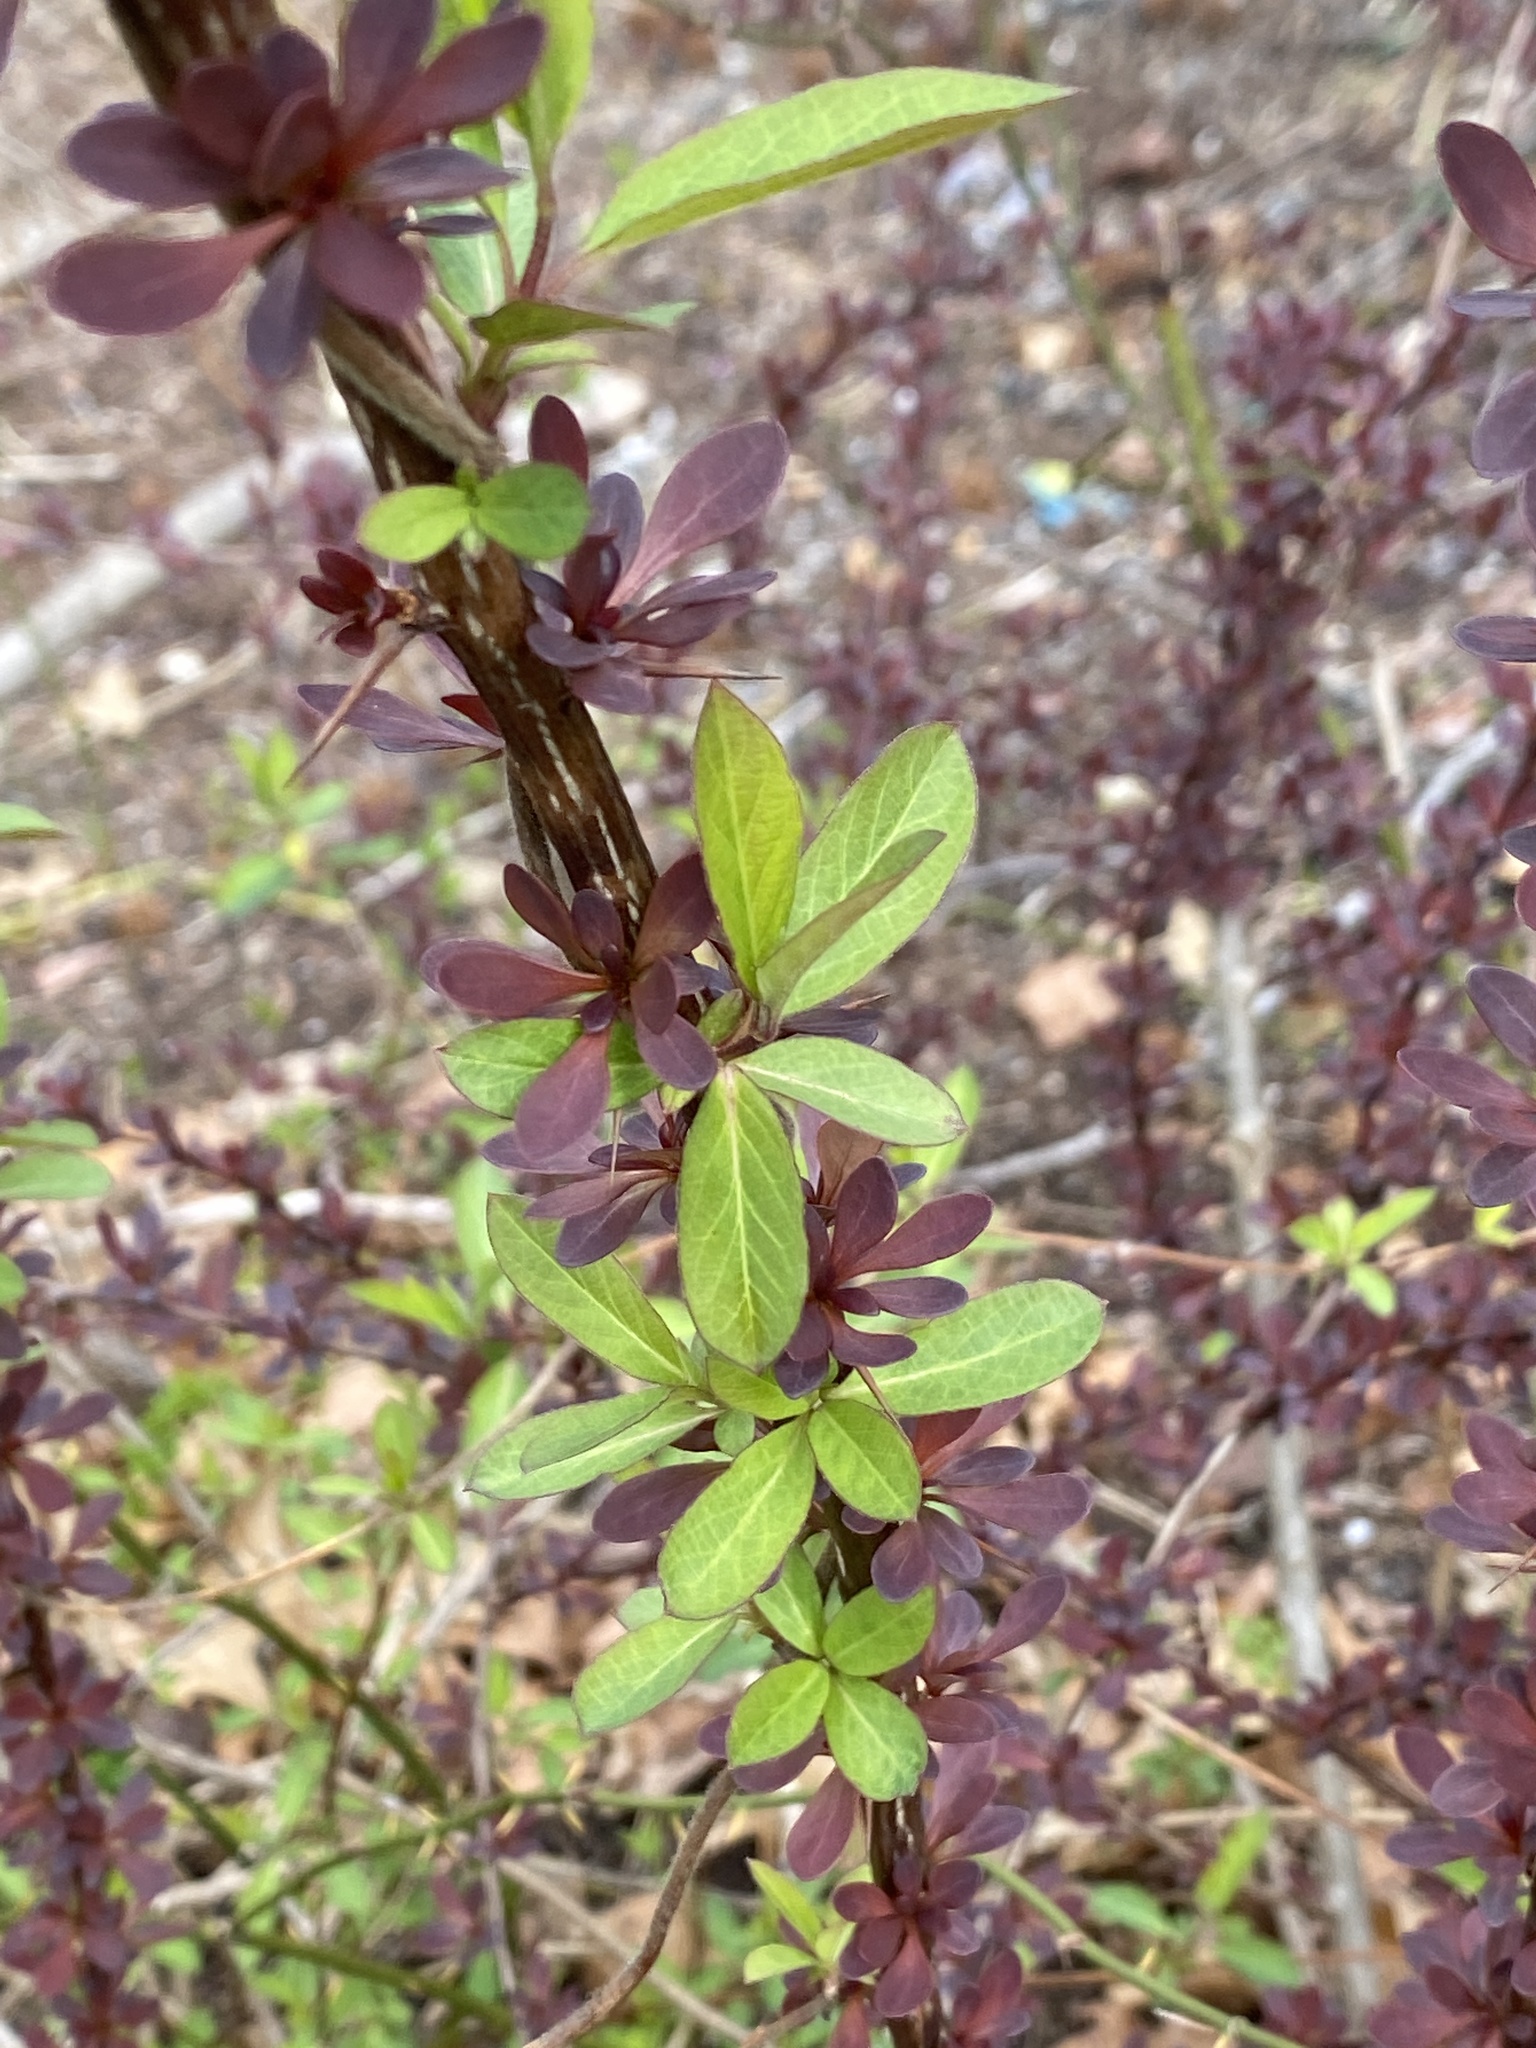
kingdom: Plantae
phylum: Tracheophyta
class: Magnoliopsida
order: Dipsacales
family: Caprifoliaceae
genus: Lonicera
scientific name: Lonicera japonica
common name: Japanese honeysuckle
